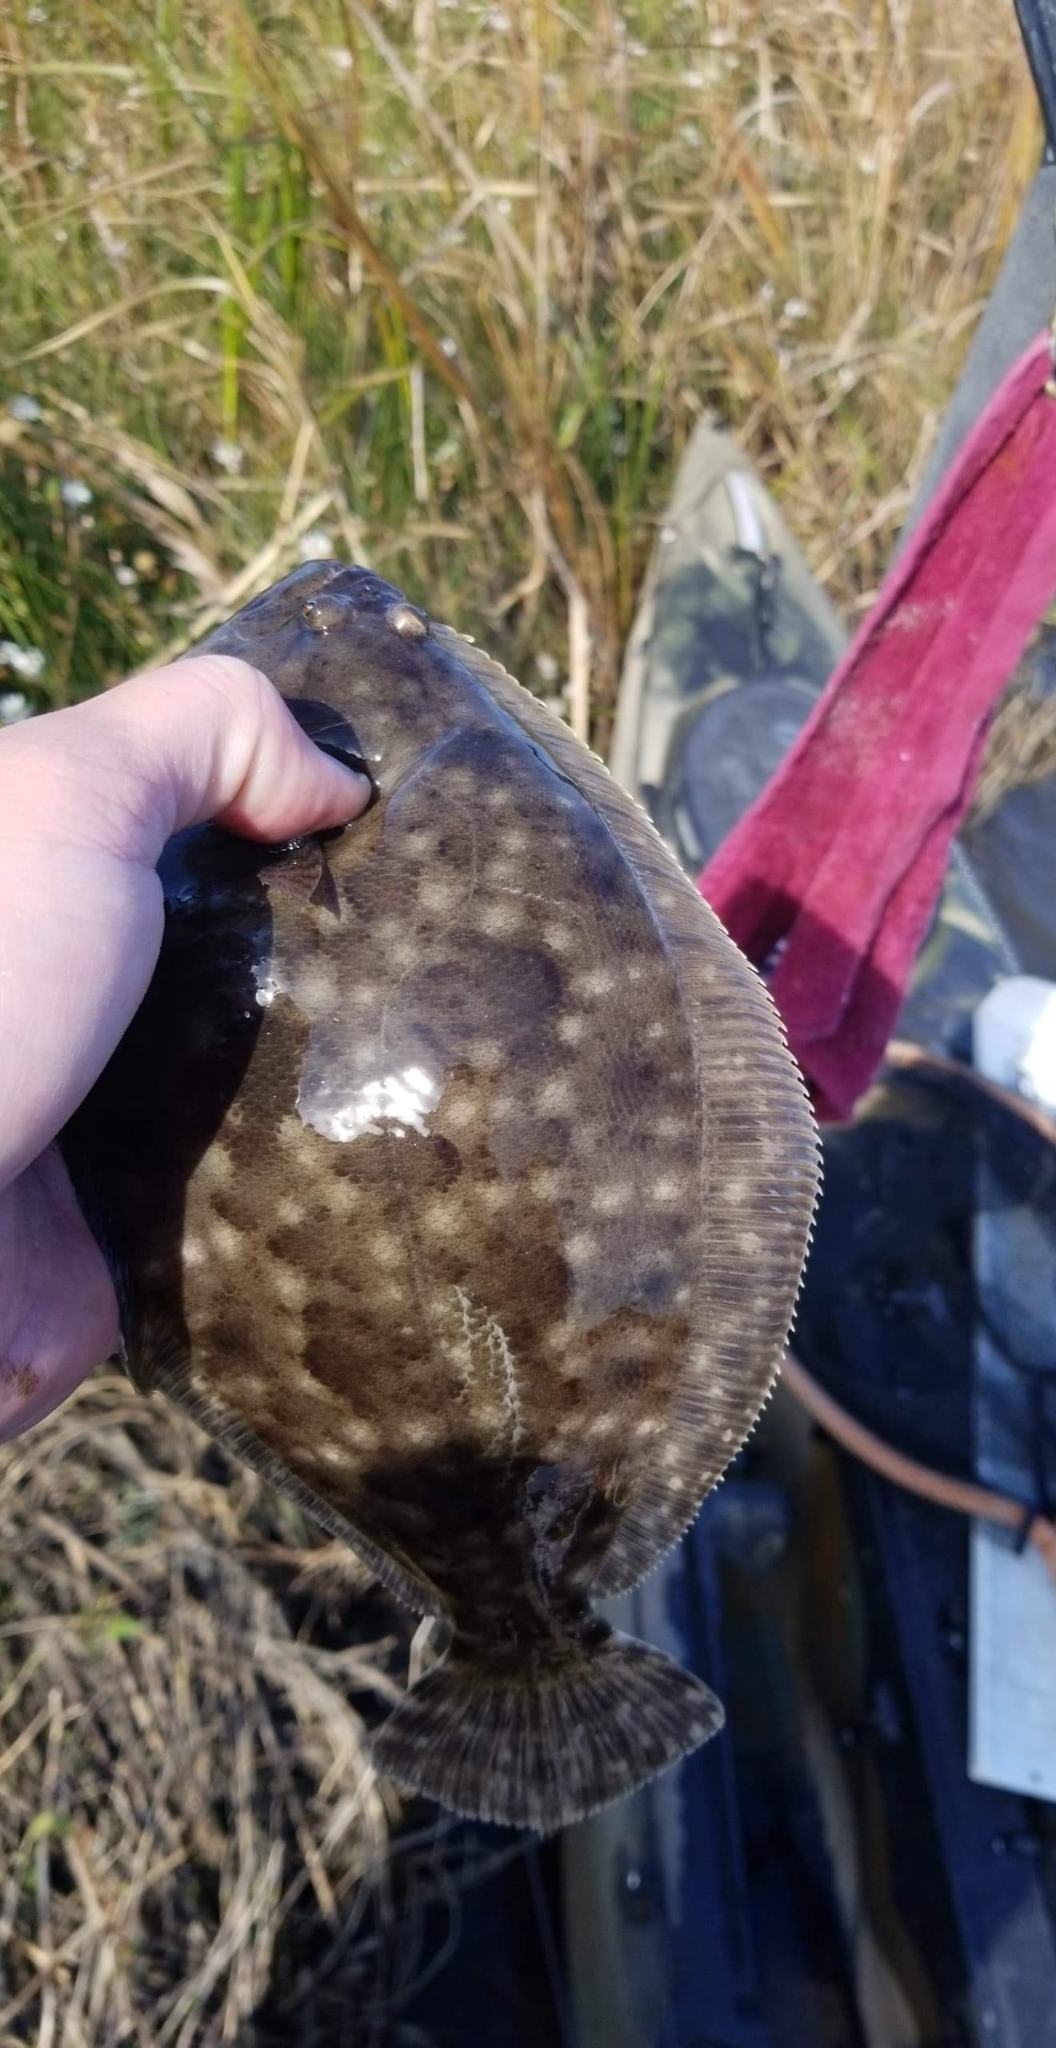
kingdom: Animalia
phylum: Chordata
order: Pleuronectiformes
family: Paralichthyidae
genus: Paralichthys
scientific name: Paralichthys lethostigma
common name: Southern flounder
